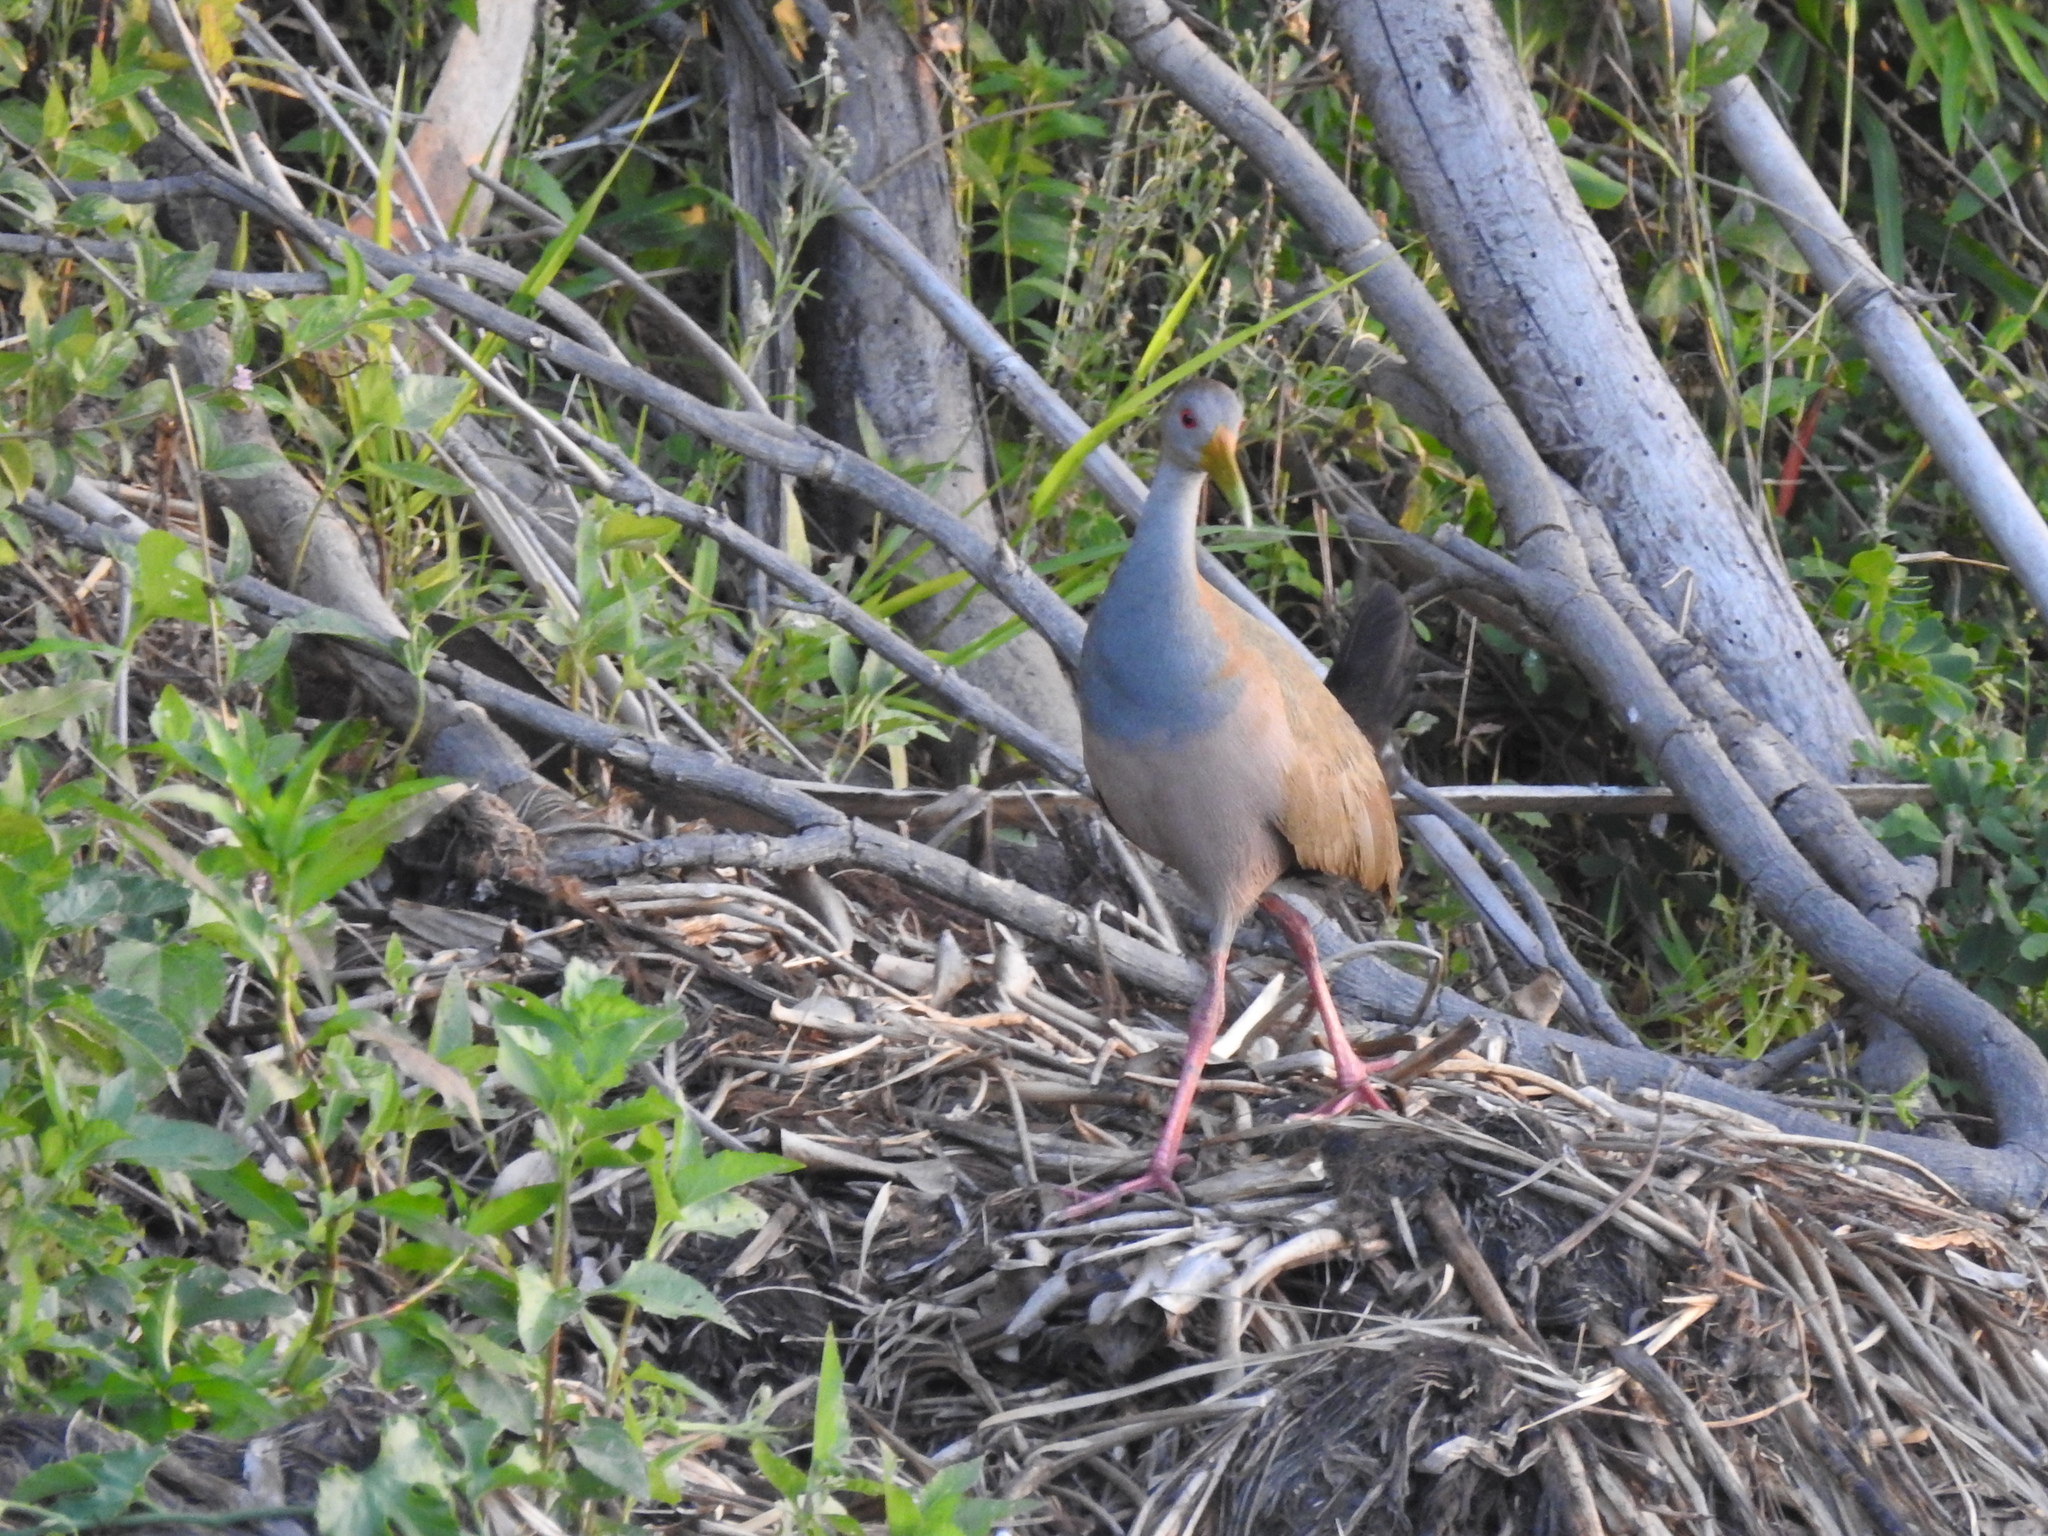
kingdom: Animalia
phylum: Chordata
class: Aves
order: Gruiformes
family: Rallidae
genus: Aramides
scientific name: Aramides ypecaha
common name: Giant wood rail
